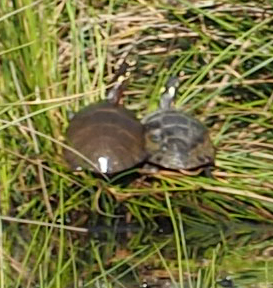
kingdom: Animalia
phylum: Chordata
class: Testudines
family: Emydidae
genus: Chrysemys
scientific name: Chrysemys picta
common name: Painted turtle
